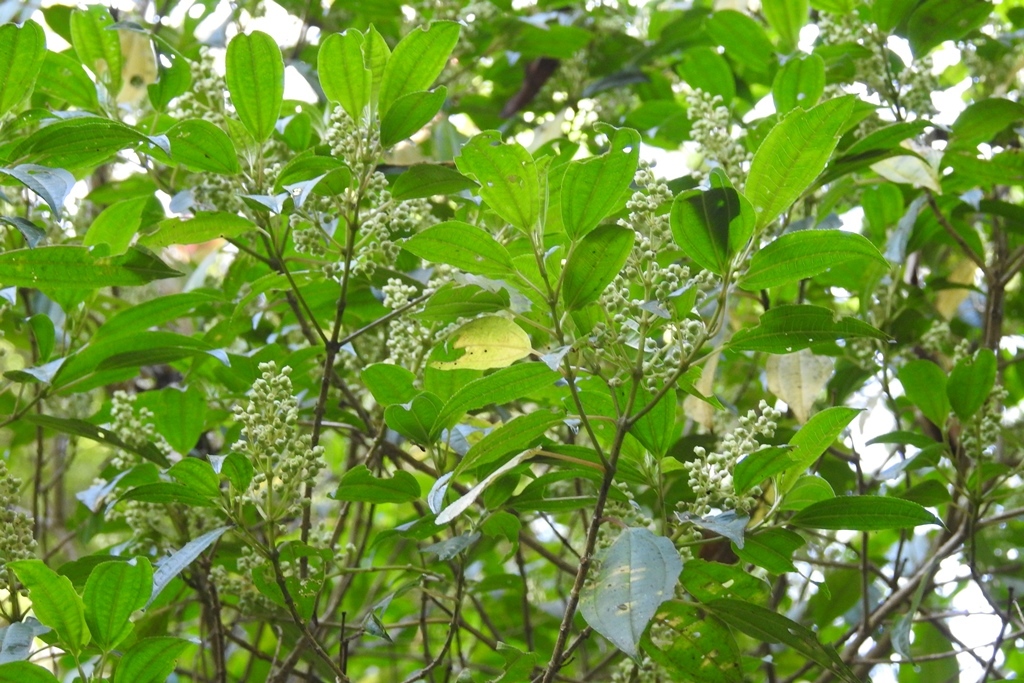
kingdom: Plantae
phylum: Tracheophyta
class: Magnoliopsida
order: Myrtales
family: Melastomataceae
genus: Miconia
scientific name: Miconia glaberrima
